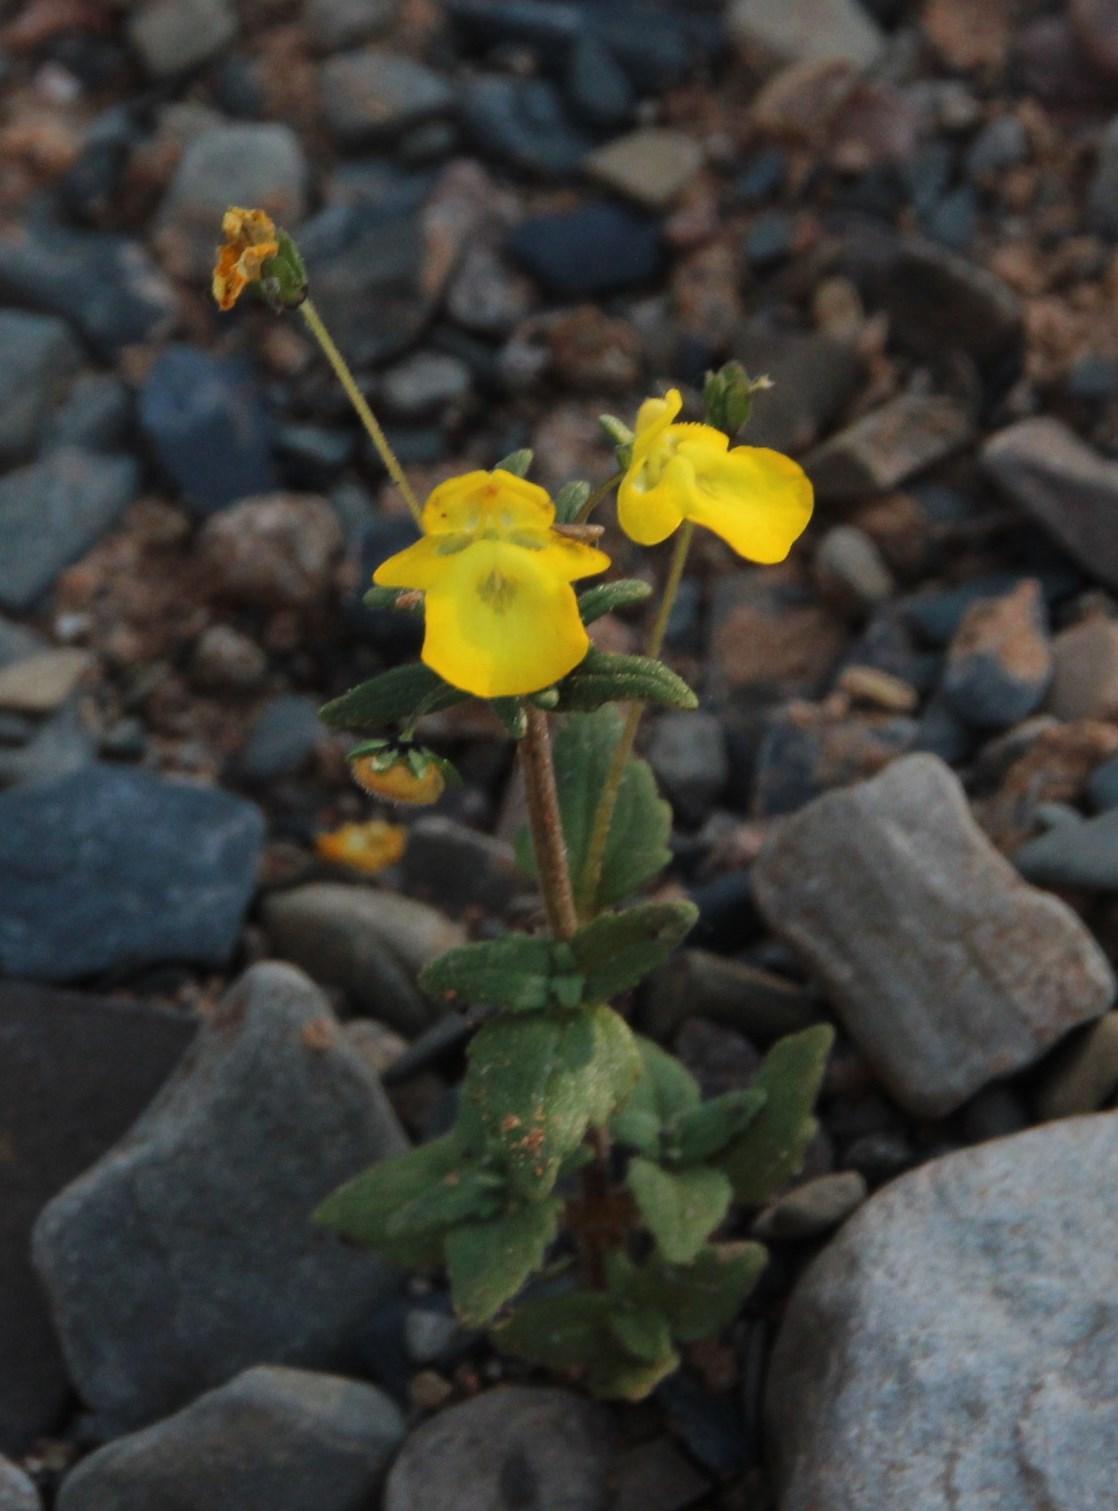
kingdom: Plantae
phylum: Tracheophyta
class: Magnoliopsida
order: Lamiales
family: Scrophulariaceae
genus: Hemimeris
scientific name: Hemimeris racemosa
